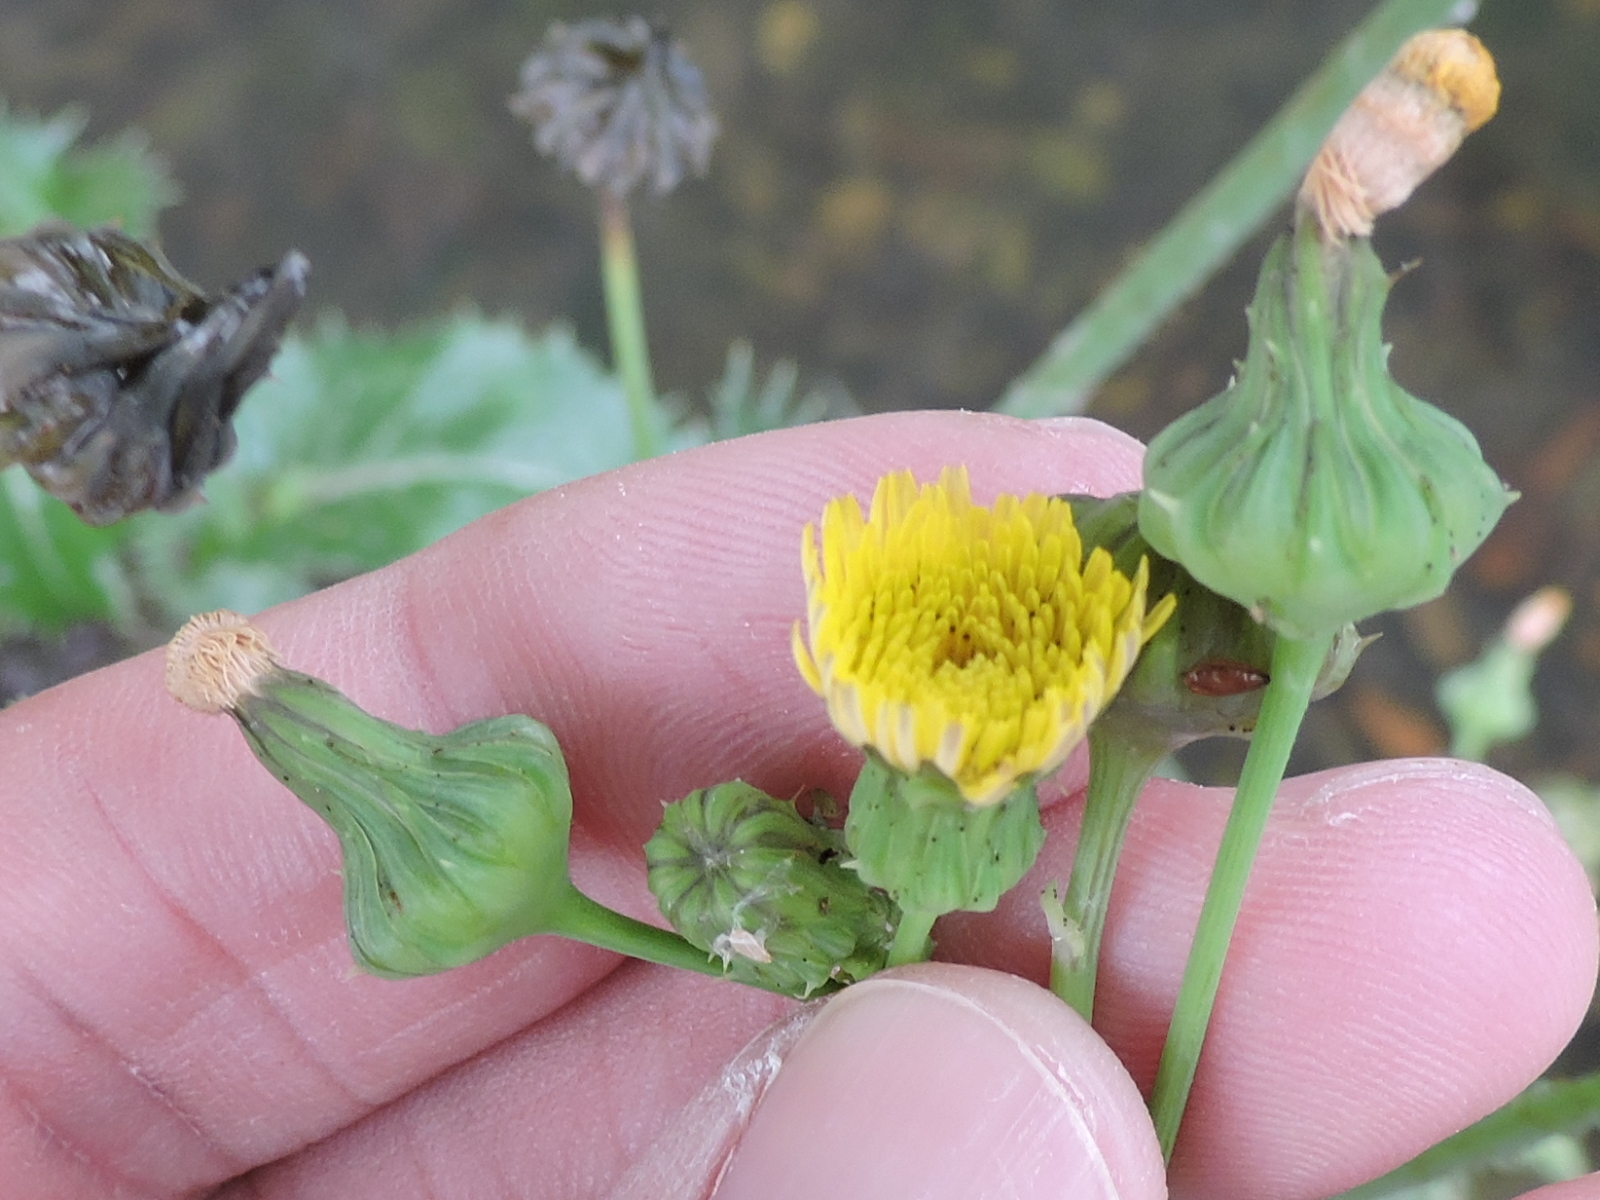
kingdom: Plantae
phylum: Tracheophyta
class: Magnoliopsida
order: Asterales
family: Asteraceae
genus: Sonchus
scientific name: Sonchus asper
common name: Prickly sow-thistle
